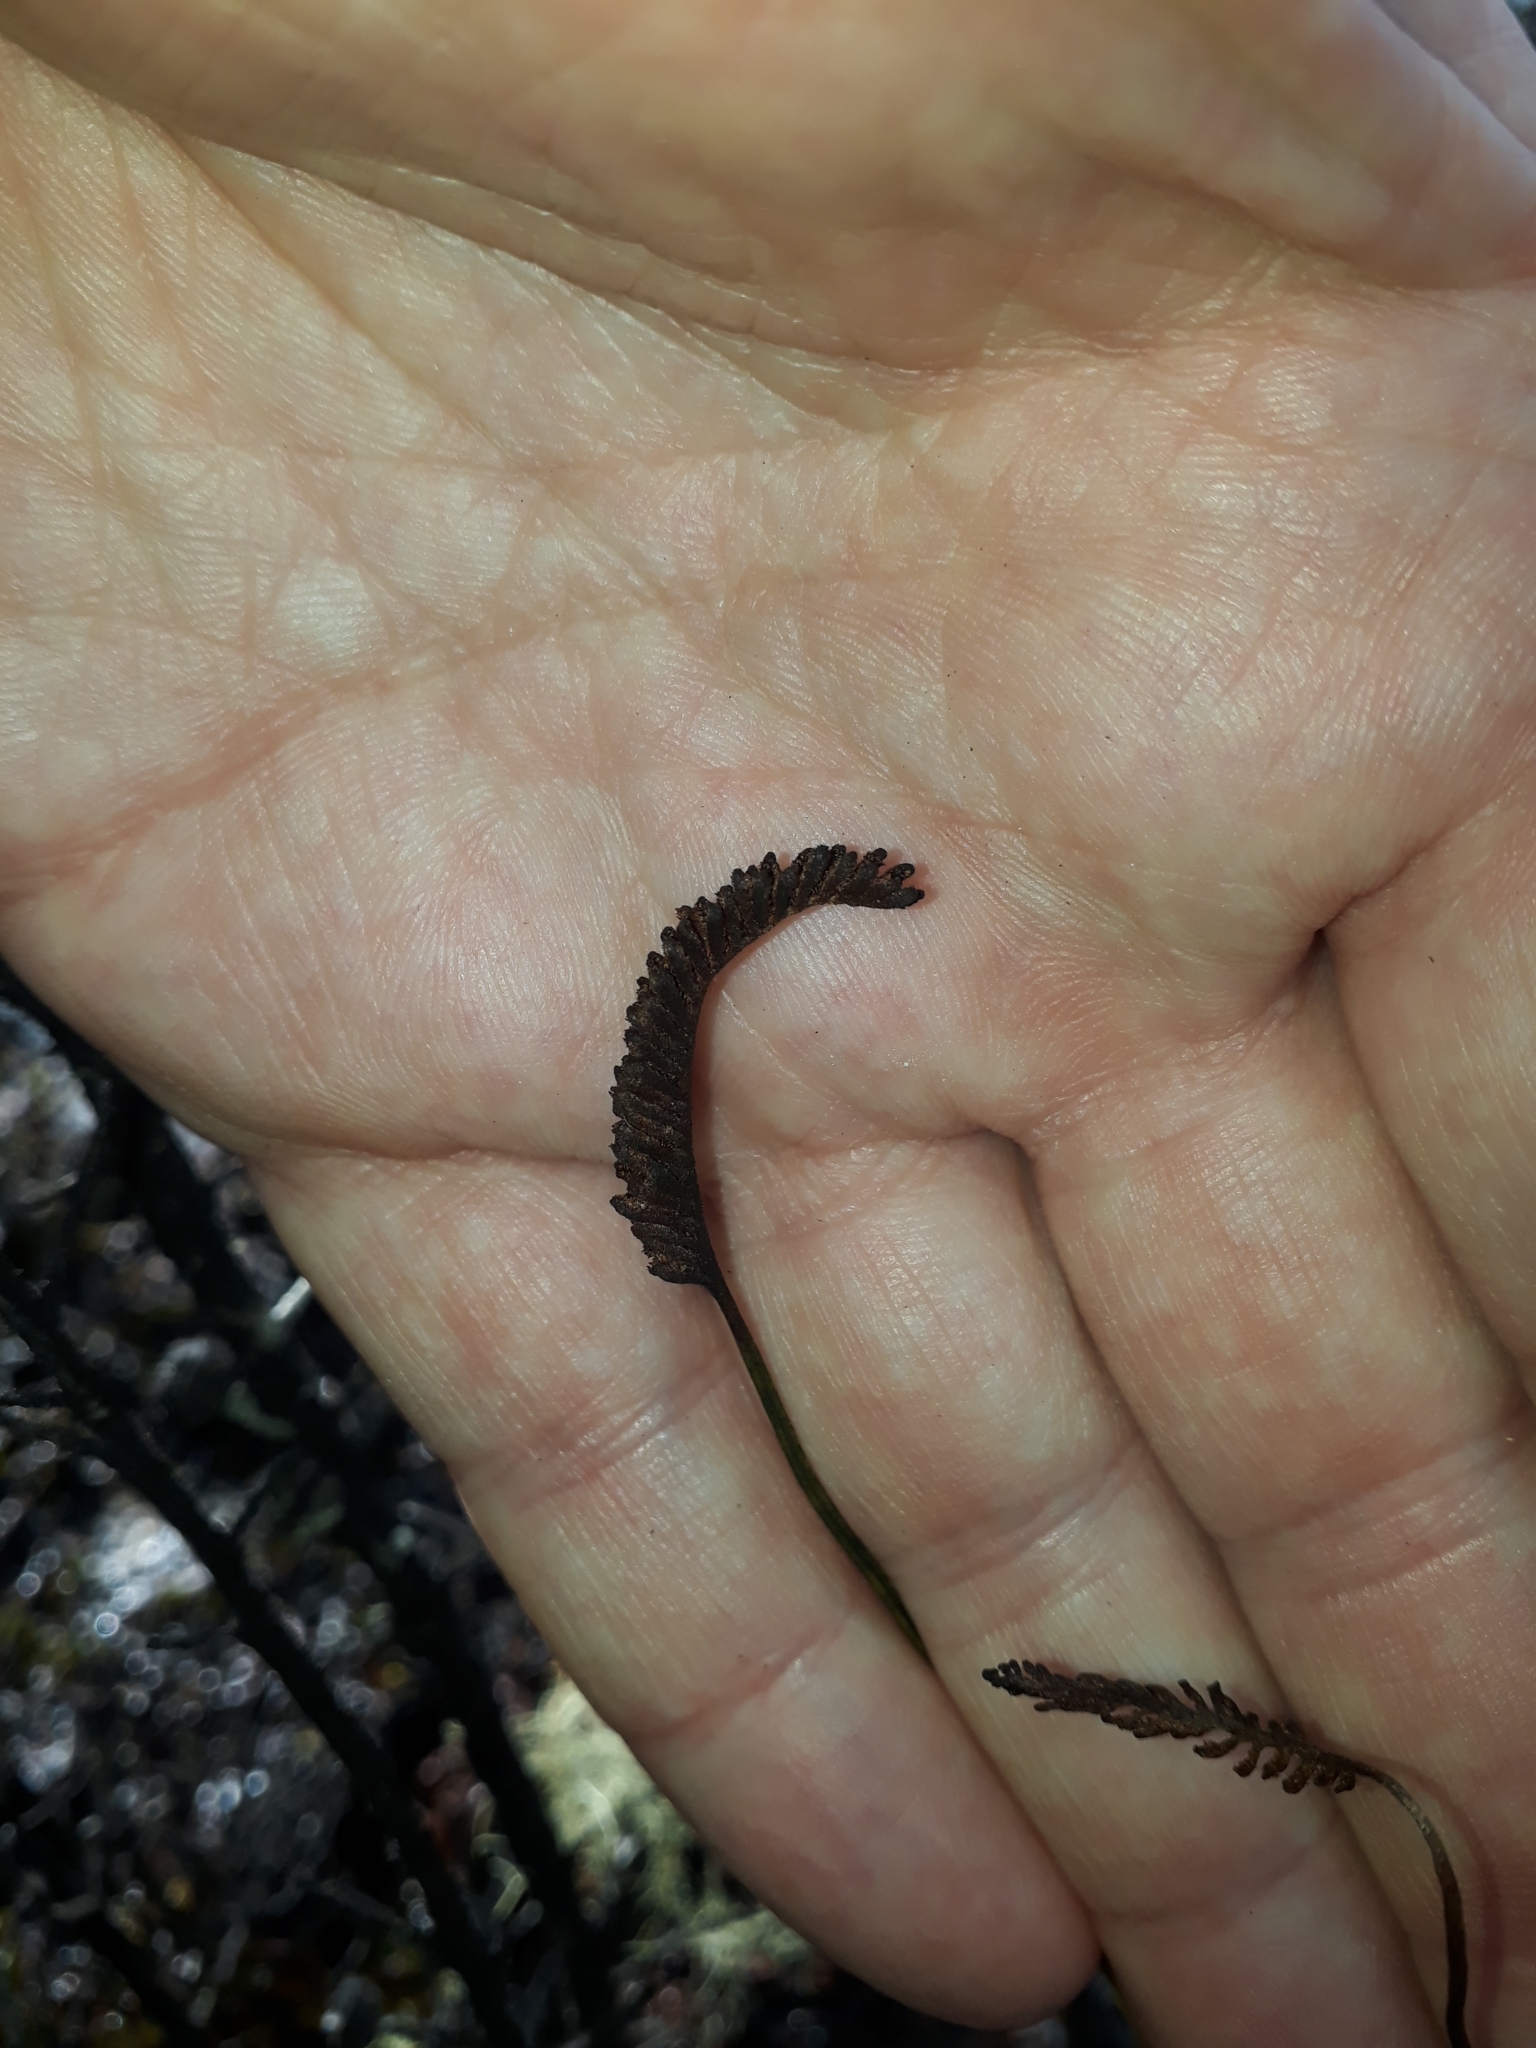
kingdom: Plantae
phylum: Tracheophyta
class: Polypodiopsida
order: Schizaeales
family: Schizaeaceae
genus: Microschizaea
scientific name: Microschizaea fistulosa
